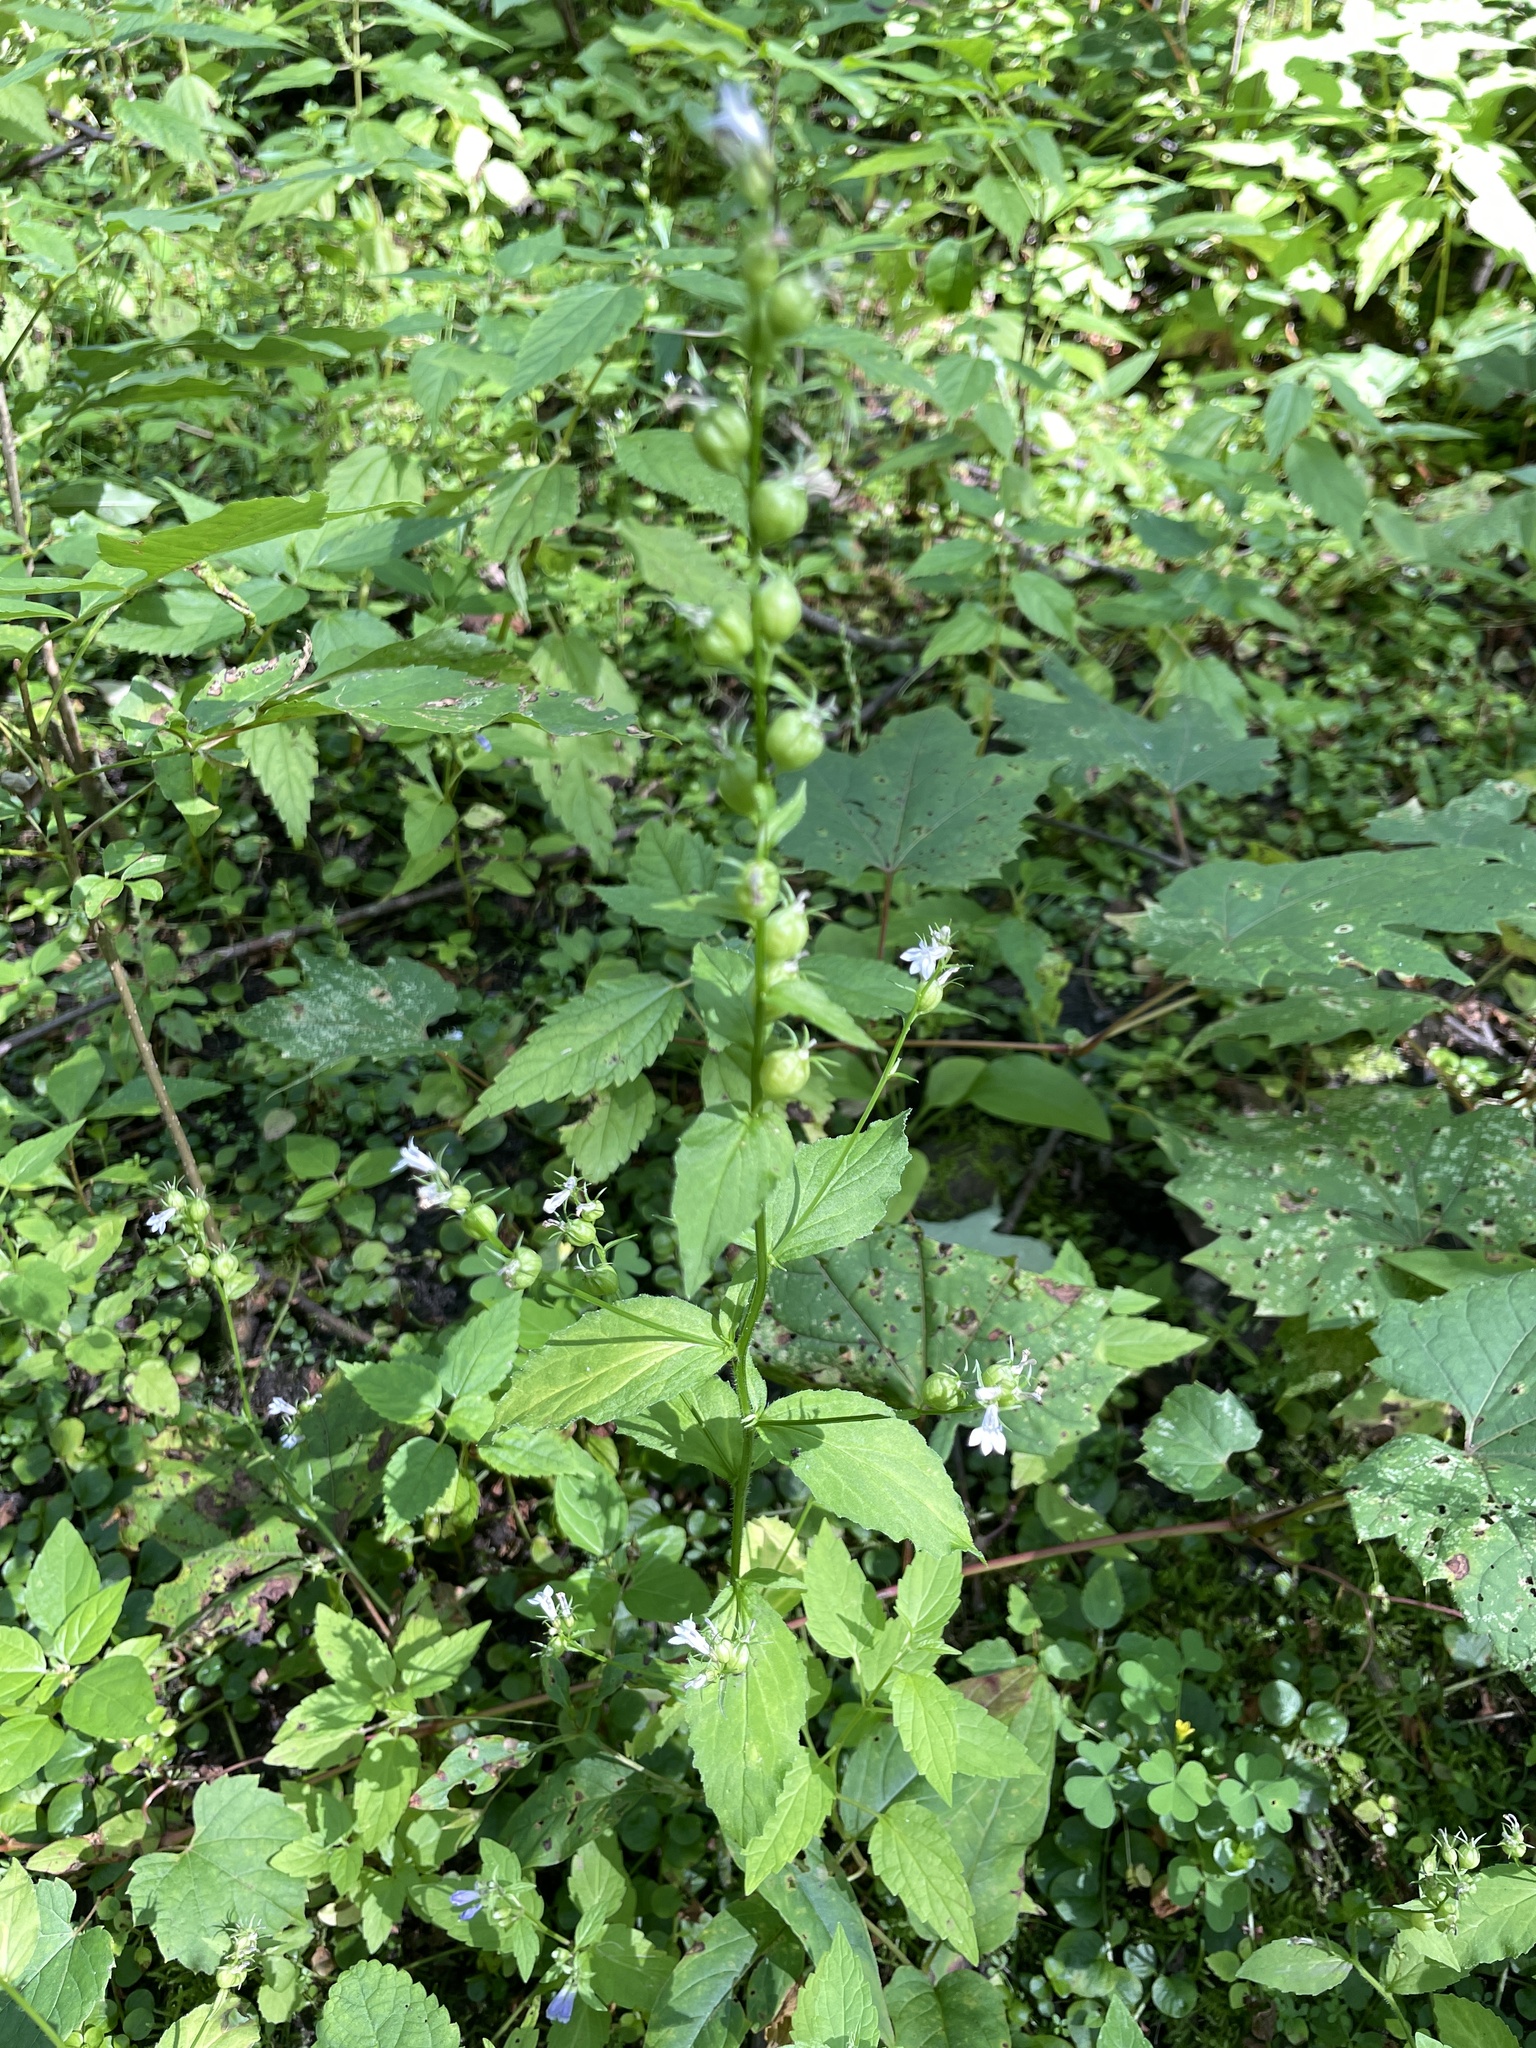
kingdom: Plantae
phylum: Tracheophyta
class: Magnoliopsida
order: Asterales
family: Campanulaceae
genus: Lobelia
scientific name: Lobelia inflata
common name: Indian tobacco
